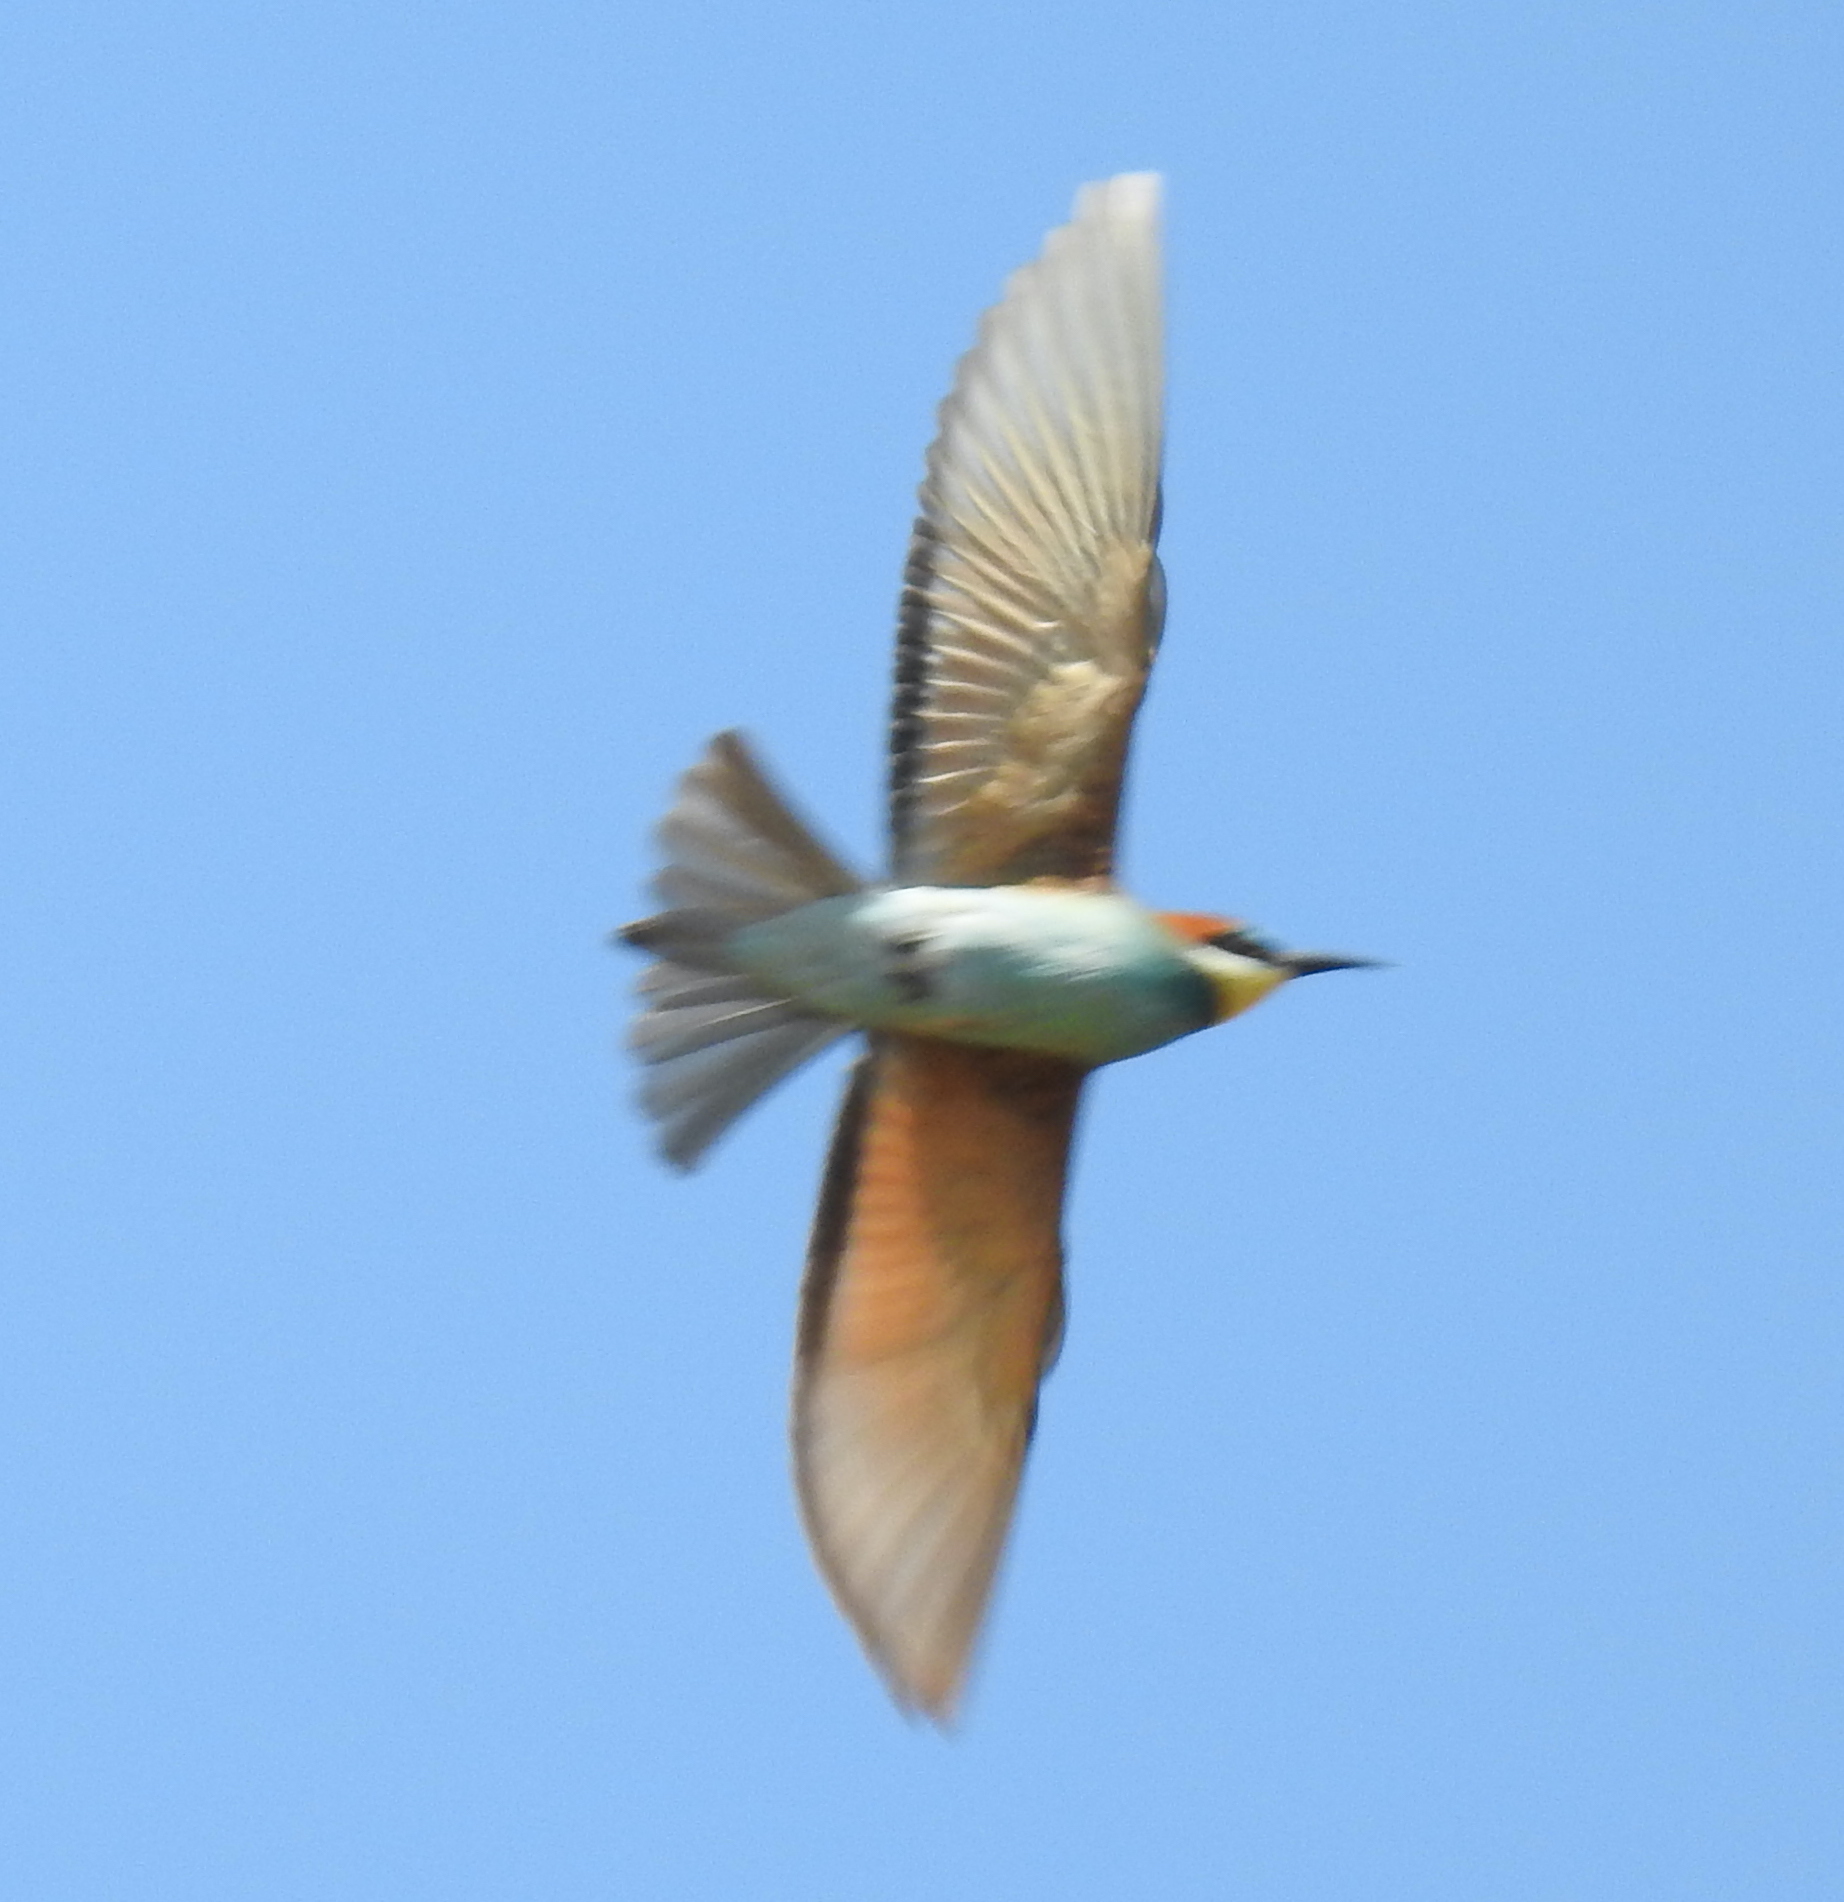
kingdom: Animalia
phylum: Chordata
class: Aves
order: Coraciiformes
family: Meropidae
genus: Merops
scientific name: Merops apiaster
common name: European bee-eater
